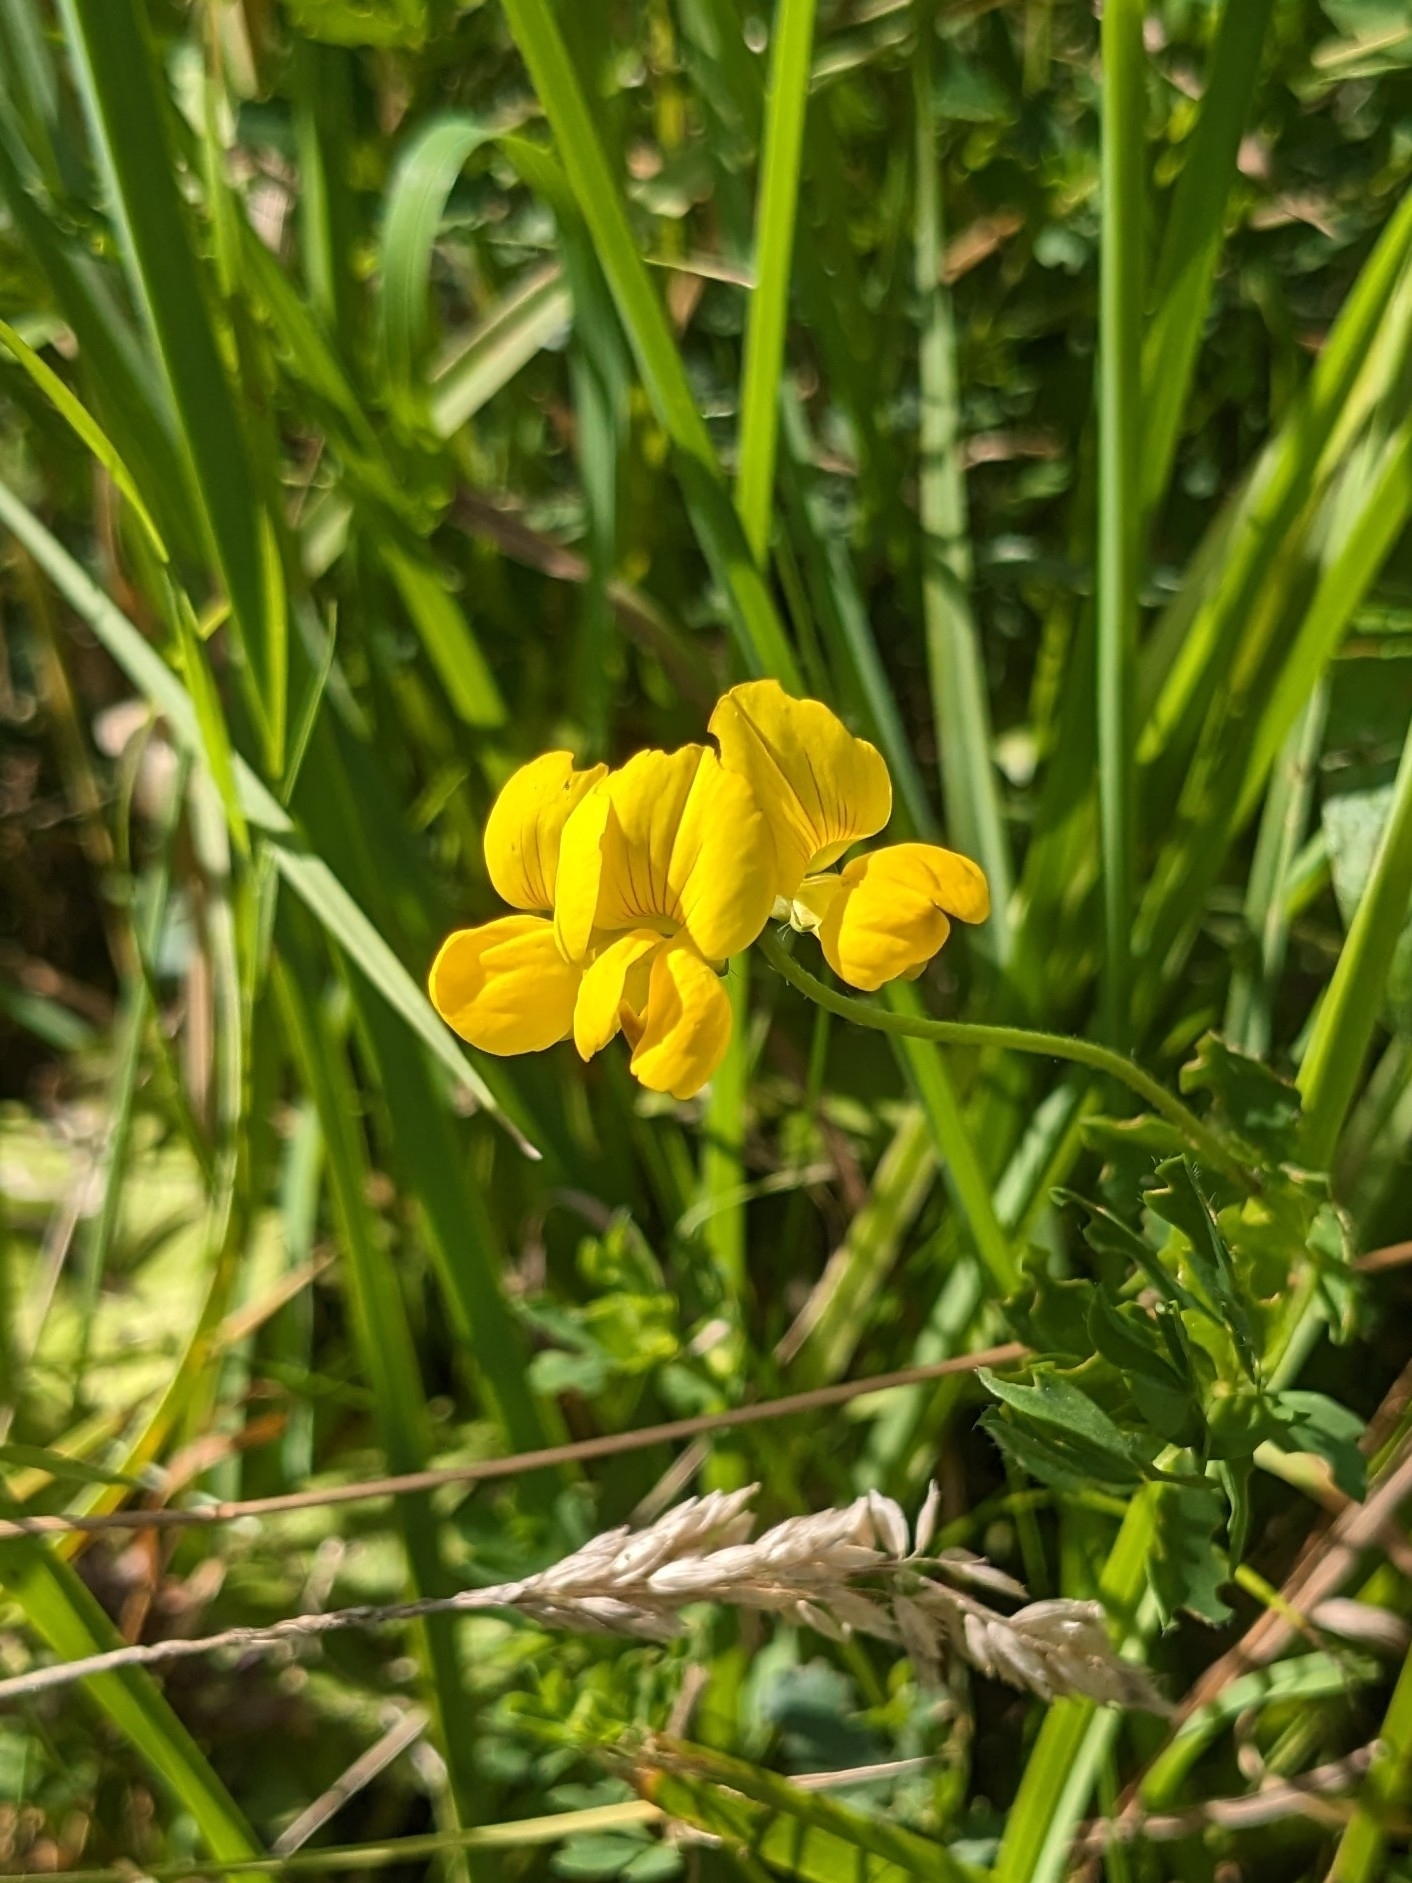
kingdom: Plantae
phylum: Tracheophyta
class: Magnoliopsida
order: Fabales
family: Fabaceae
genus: Lotus
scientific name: Lotus corniculatus
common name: Common bird's-foot-trefoil
